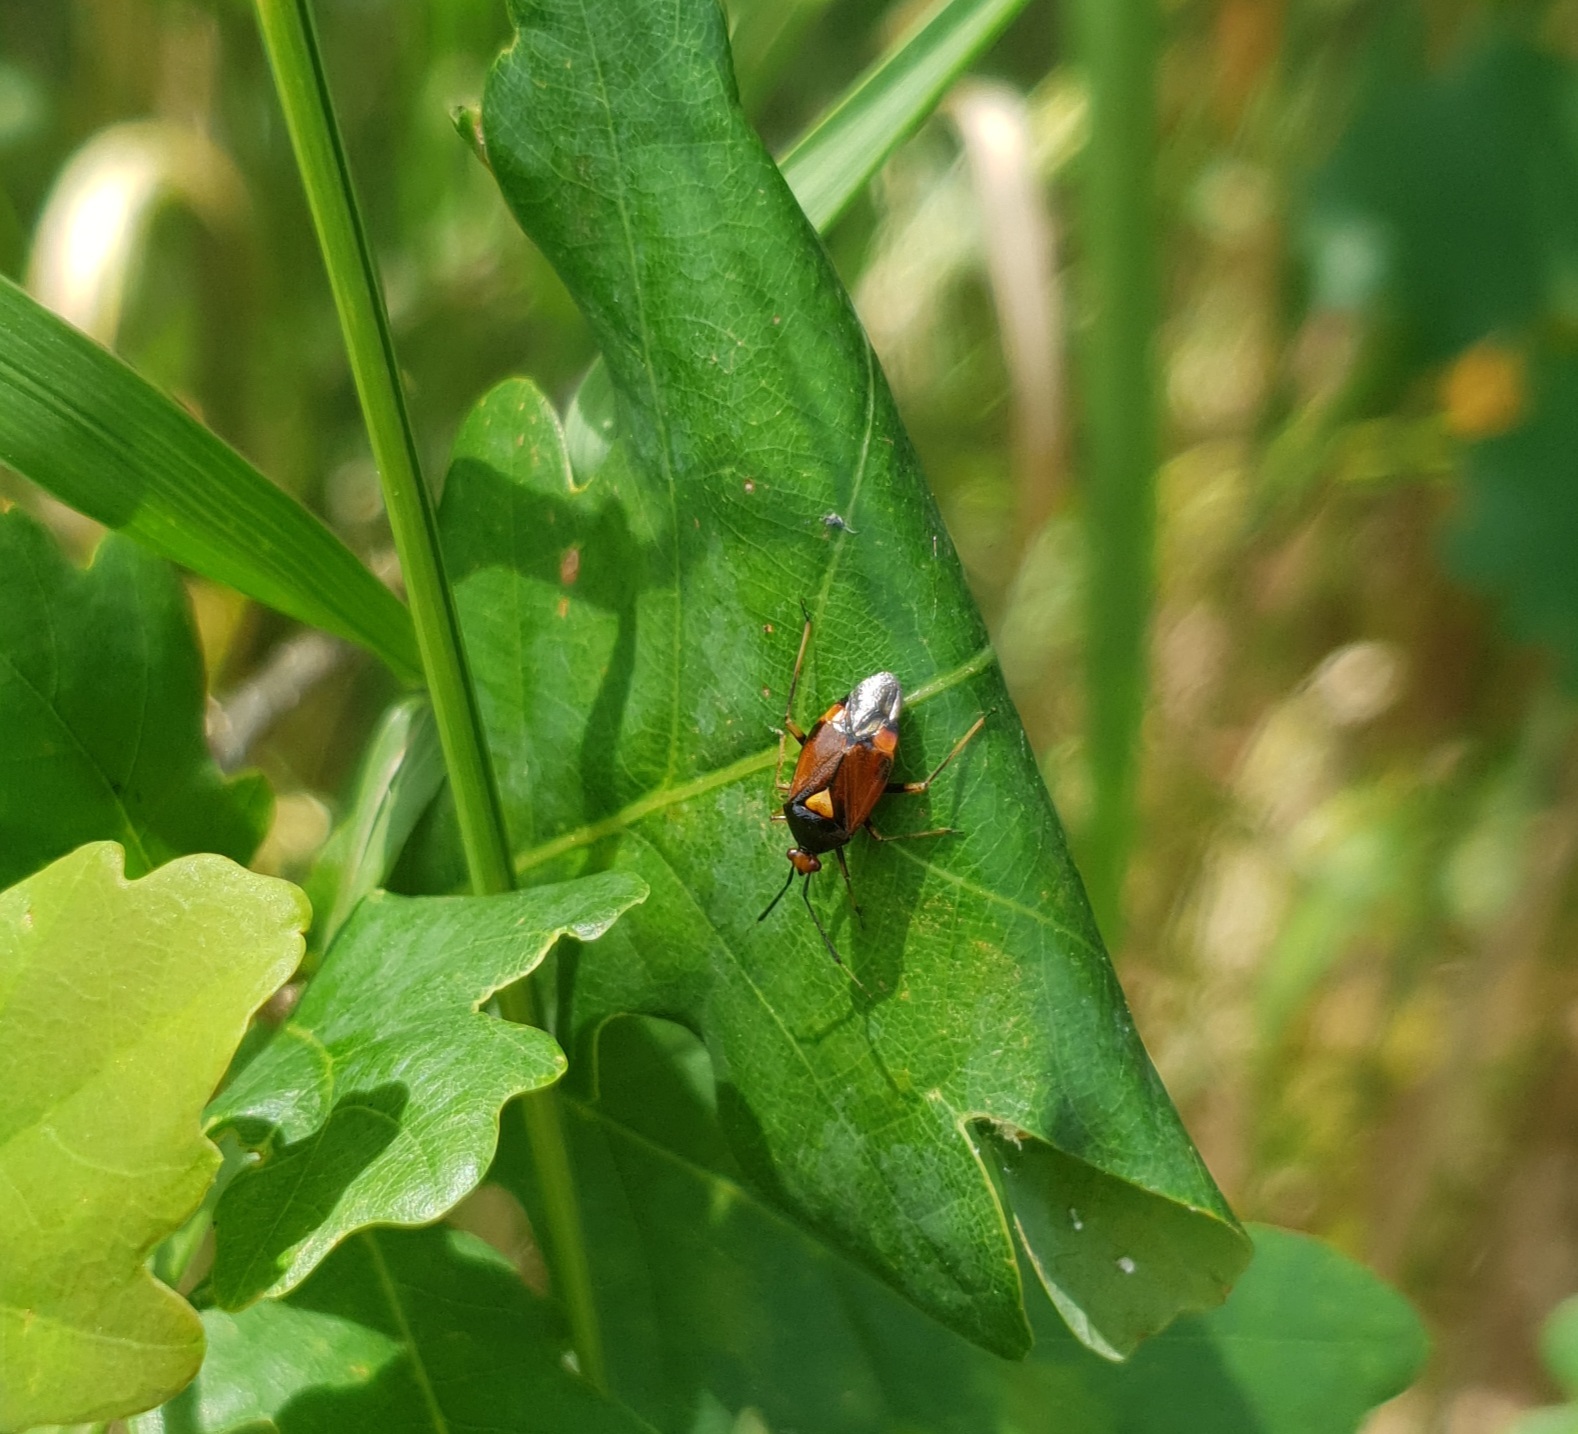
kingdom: Animalia
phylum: Arthropoda
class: Insecta
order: Hemiptera
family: Miridae
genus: Deraeocoris
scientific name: Deraeocoris ruber
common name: Plant bug
